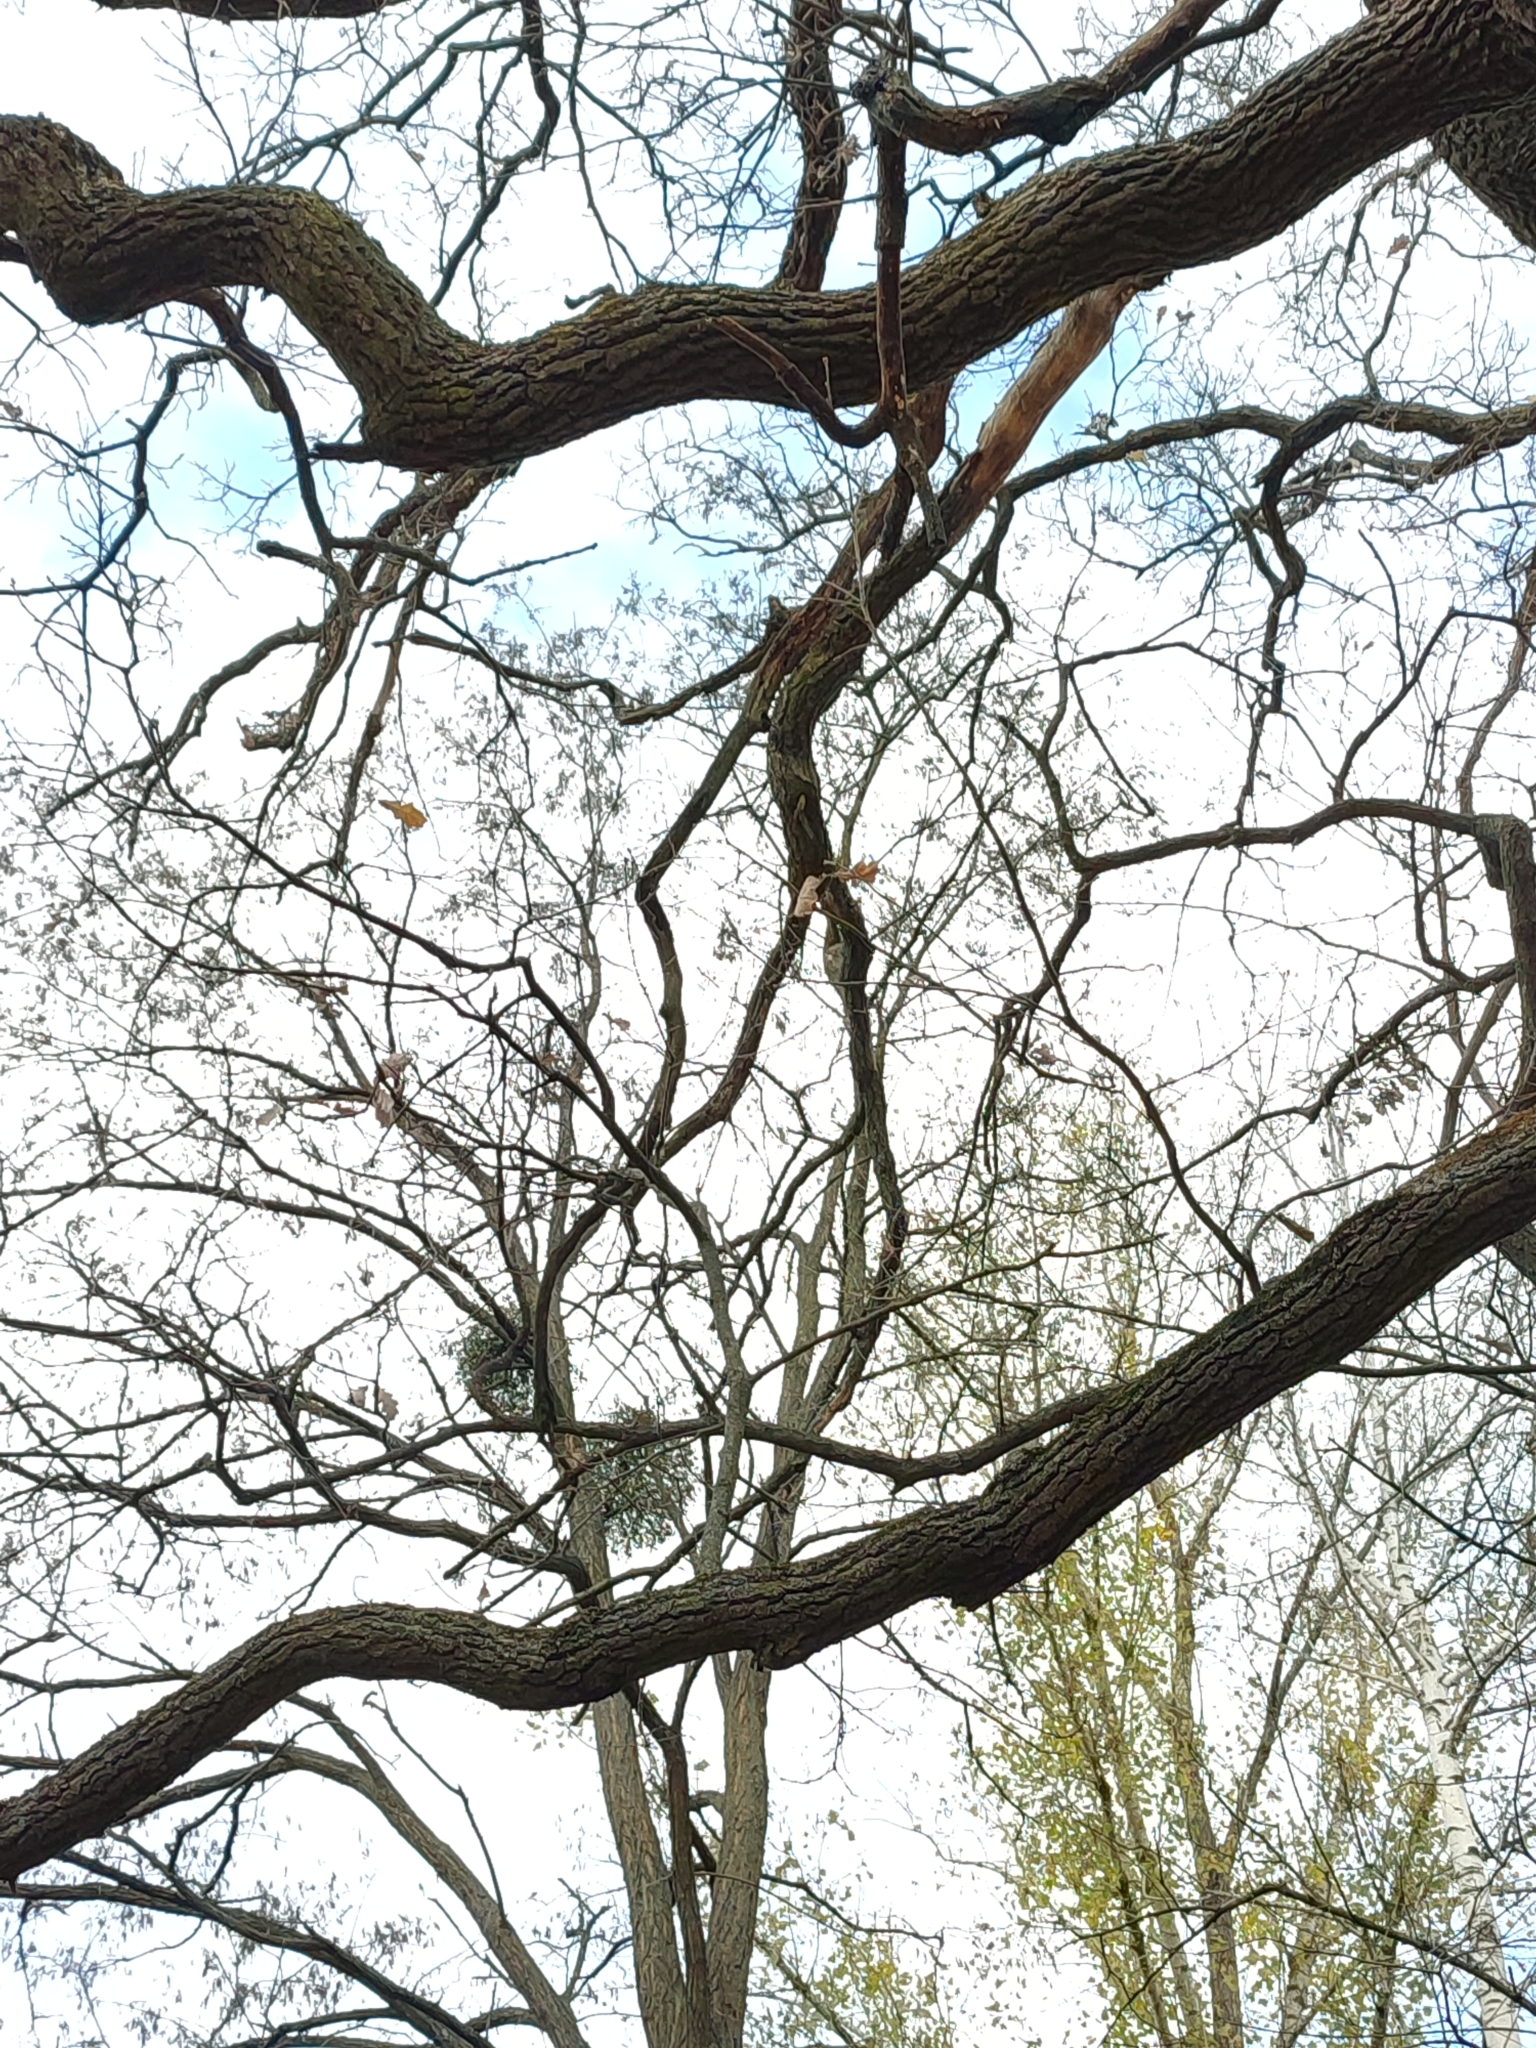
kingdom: Plantae
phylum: Tracheophyta
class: Magnoliopsida
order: Fagales
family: Fagaceae
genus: Quercus
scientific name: Quercus robur
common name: Pedunculate oak
